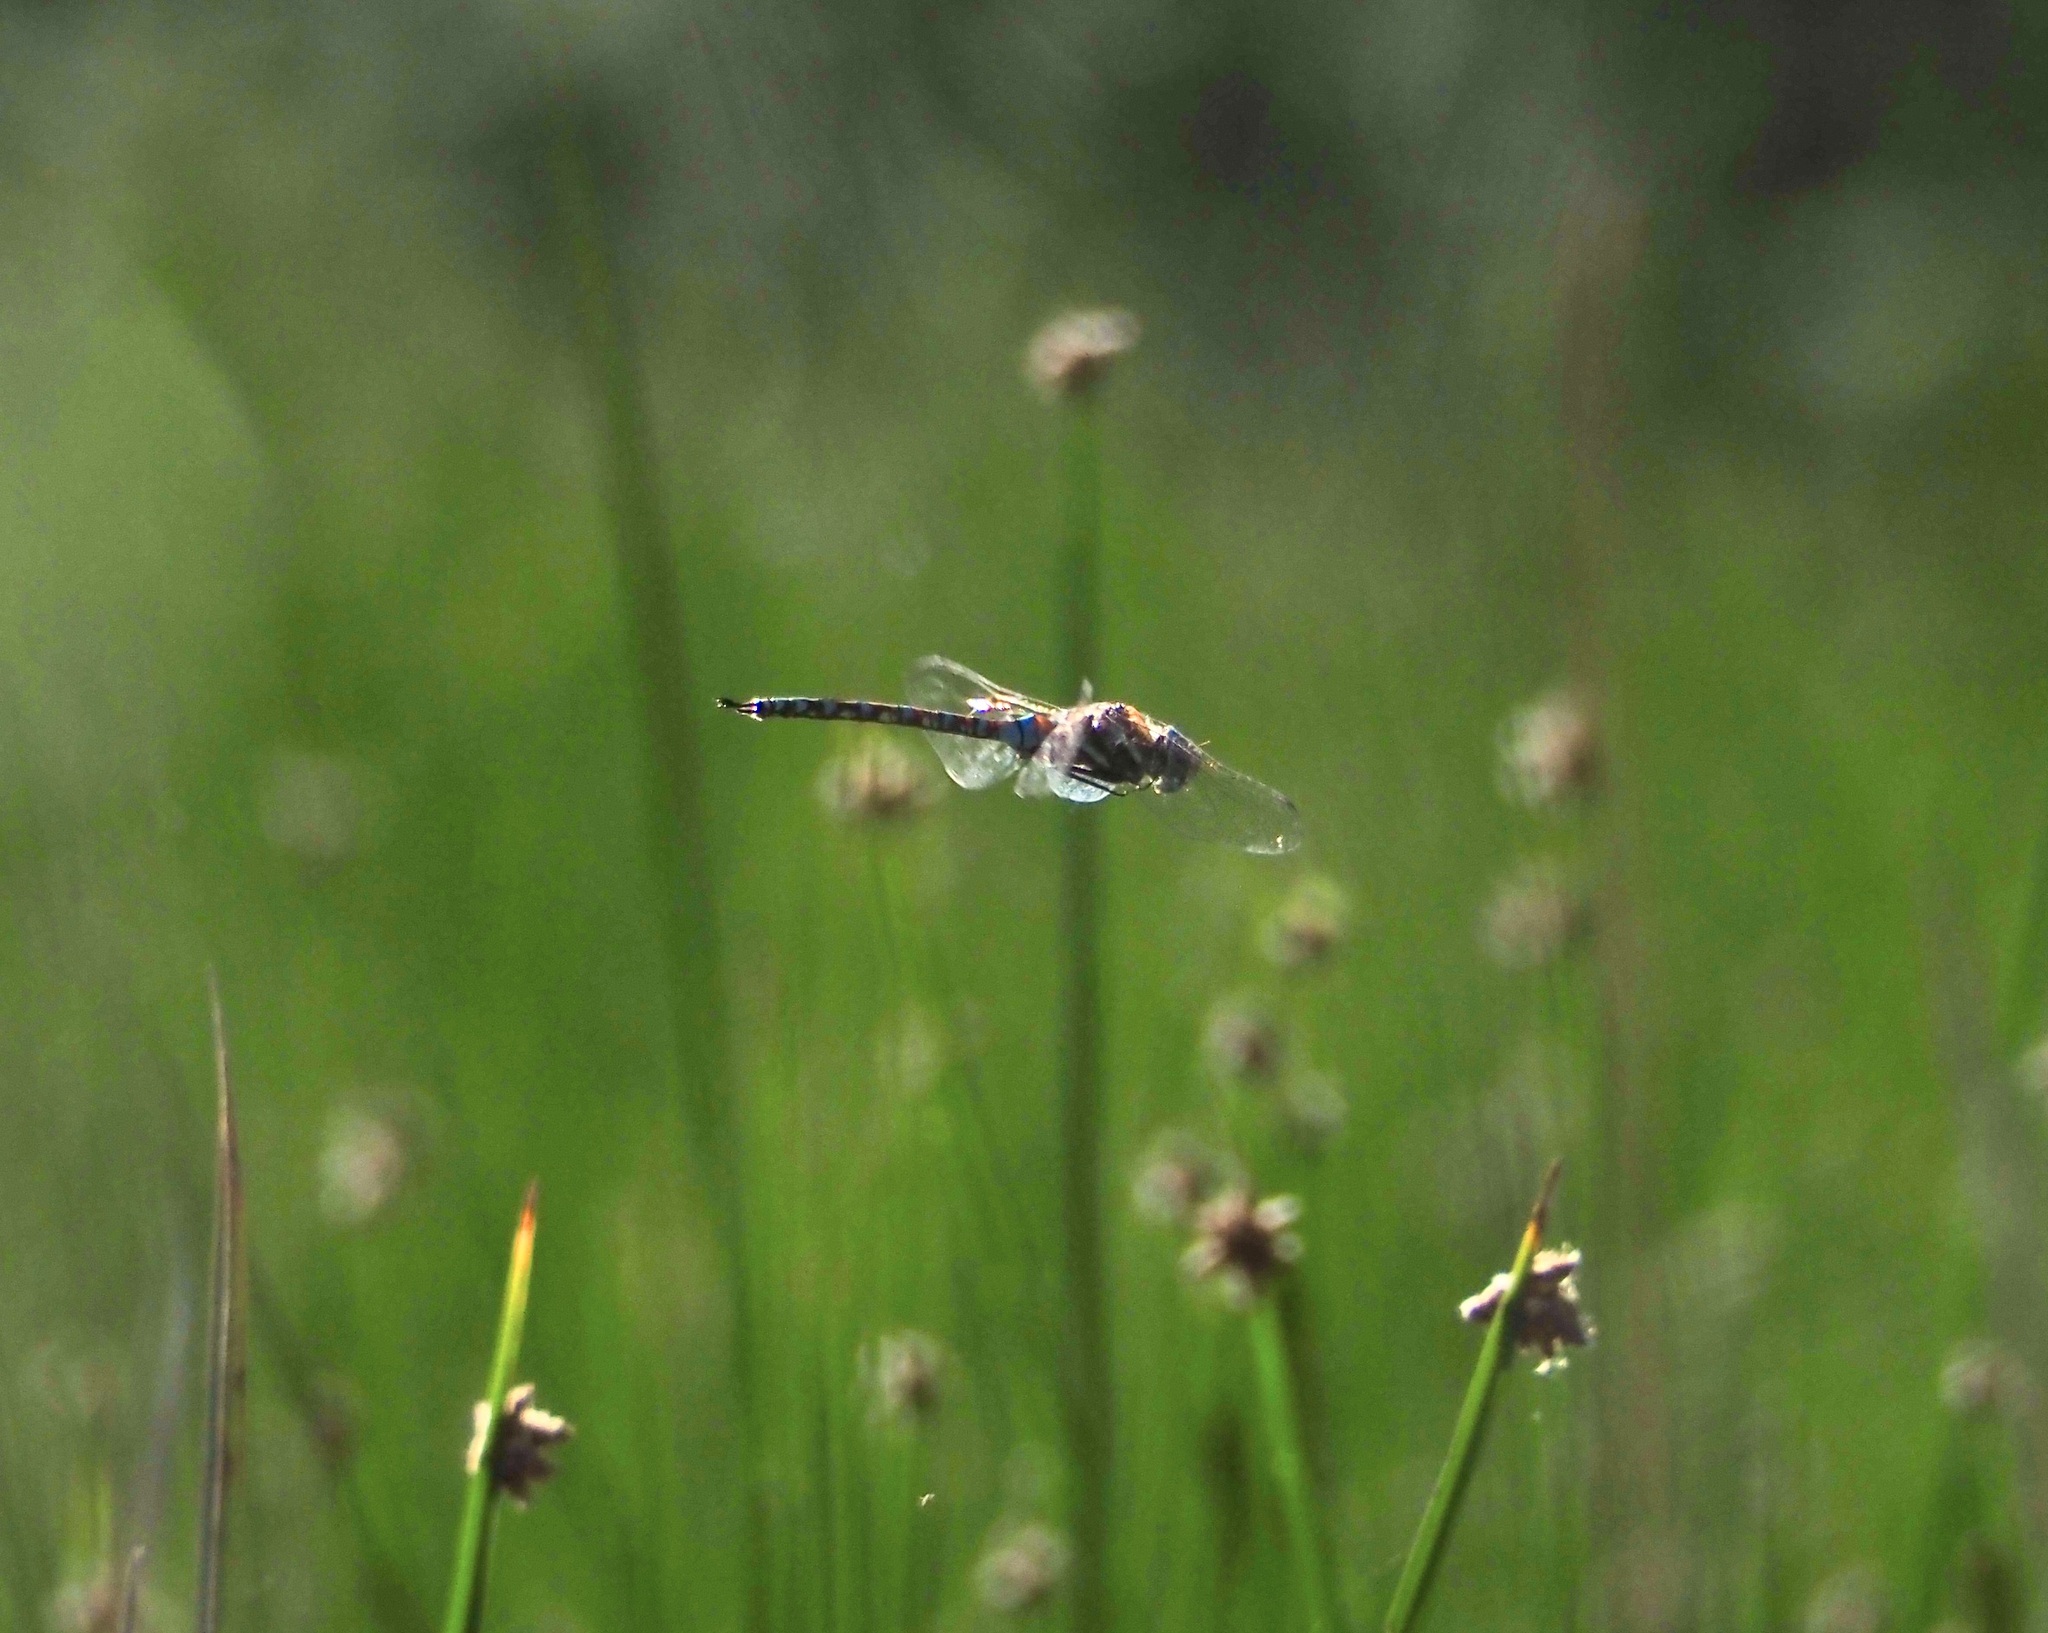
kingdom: Animalia
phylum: Arthropoda
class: Insecta
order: Odonata
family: Aeshnidae
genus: Rhionaeschna
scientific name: Rhionaeschna multicolor
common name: Blue-eyed darner
